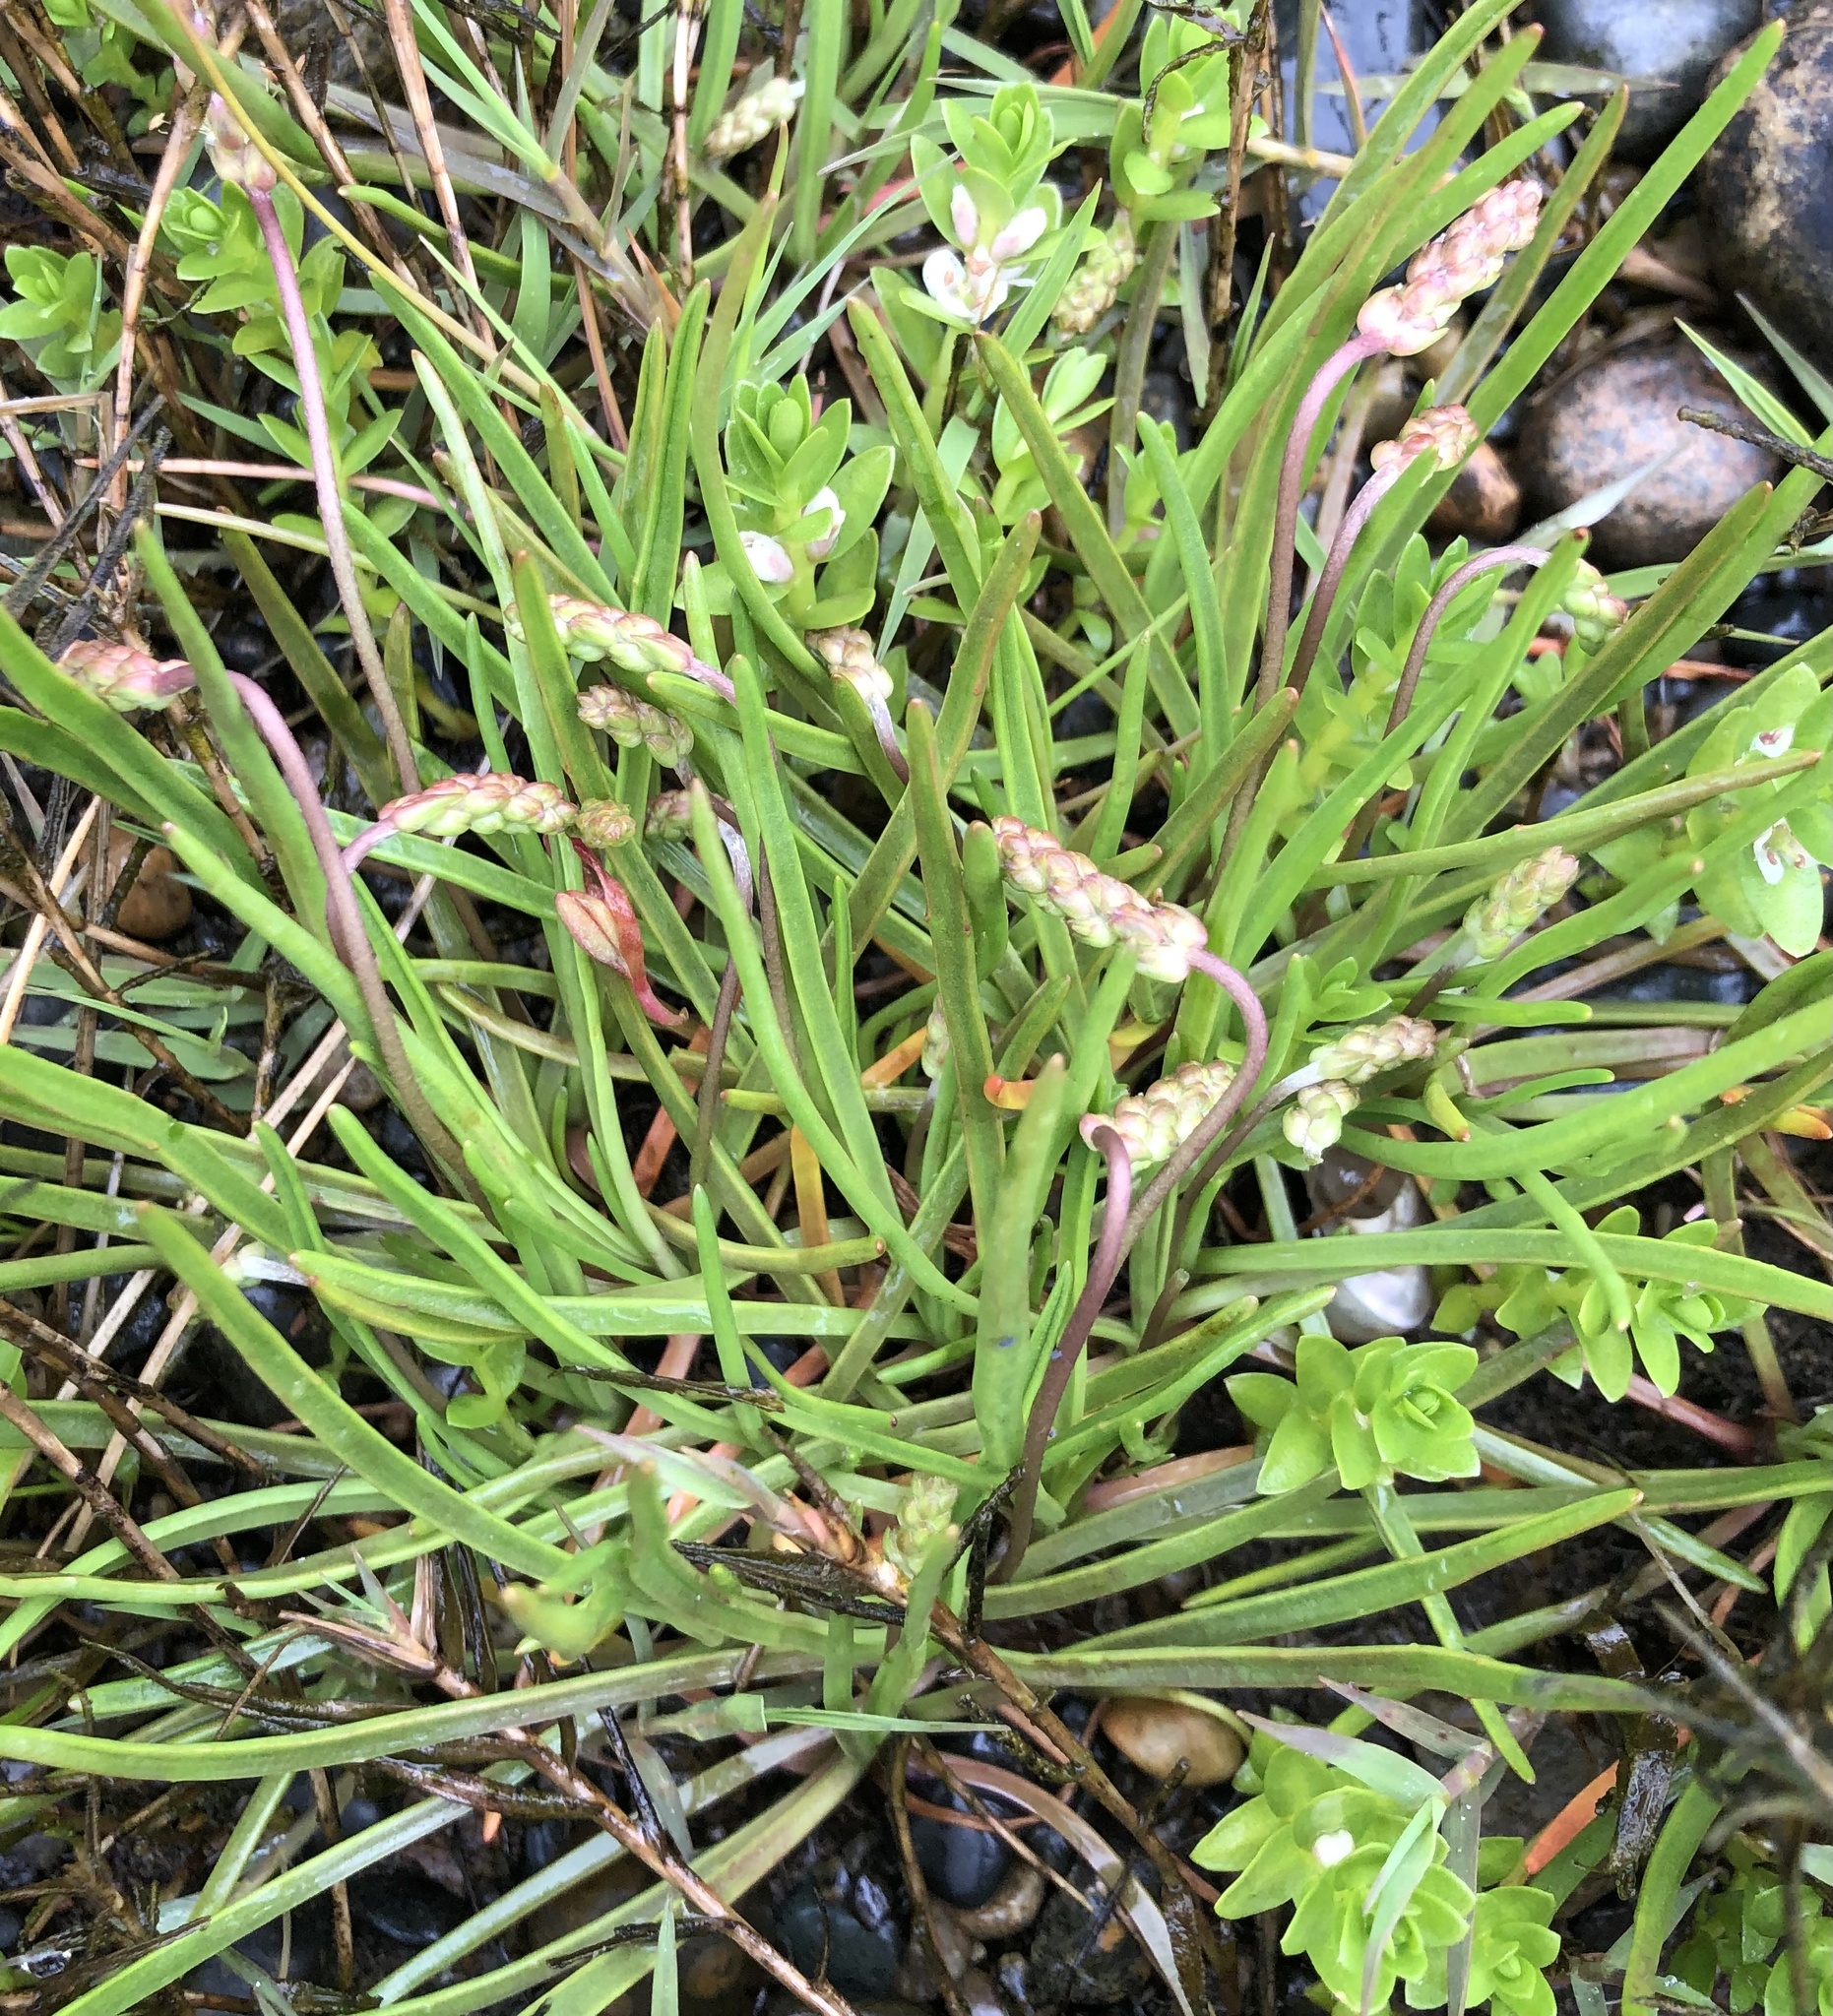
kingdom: Plantae
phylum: Tracheophyta
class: Magnoliopsida
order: Lamiales
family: Plantaginaceae
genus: Plantago
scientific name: Plantago maritima
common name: Sea plantain
